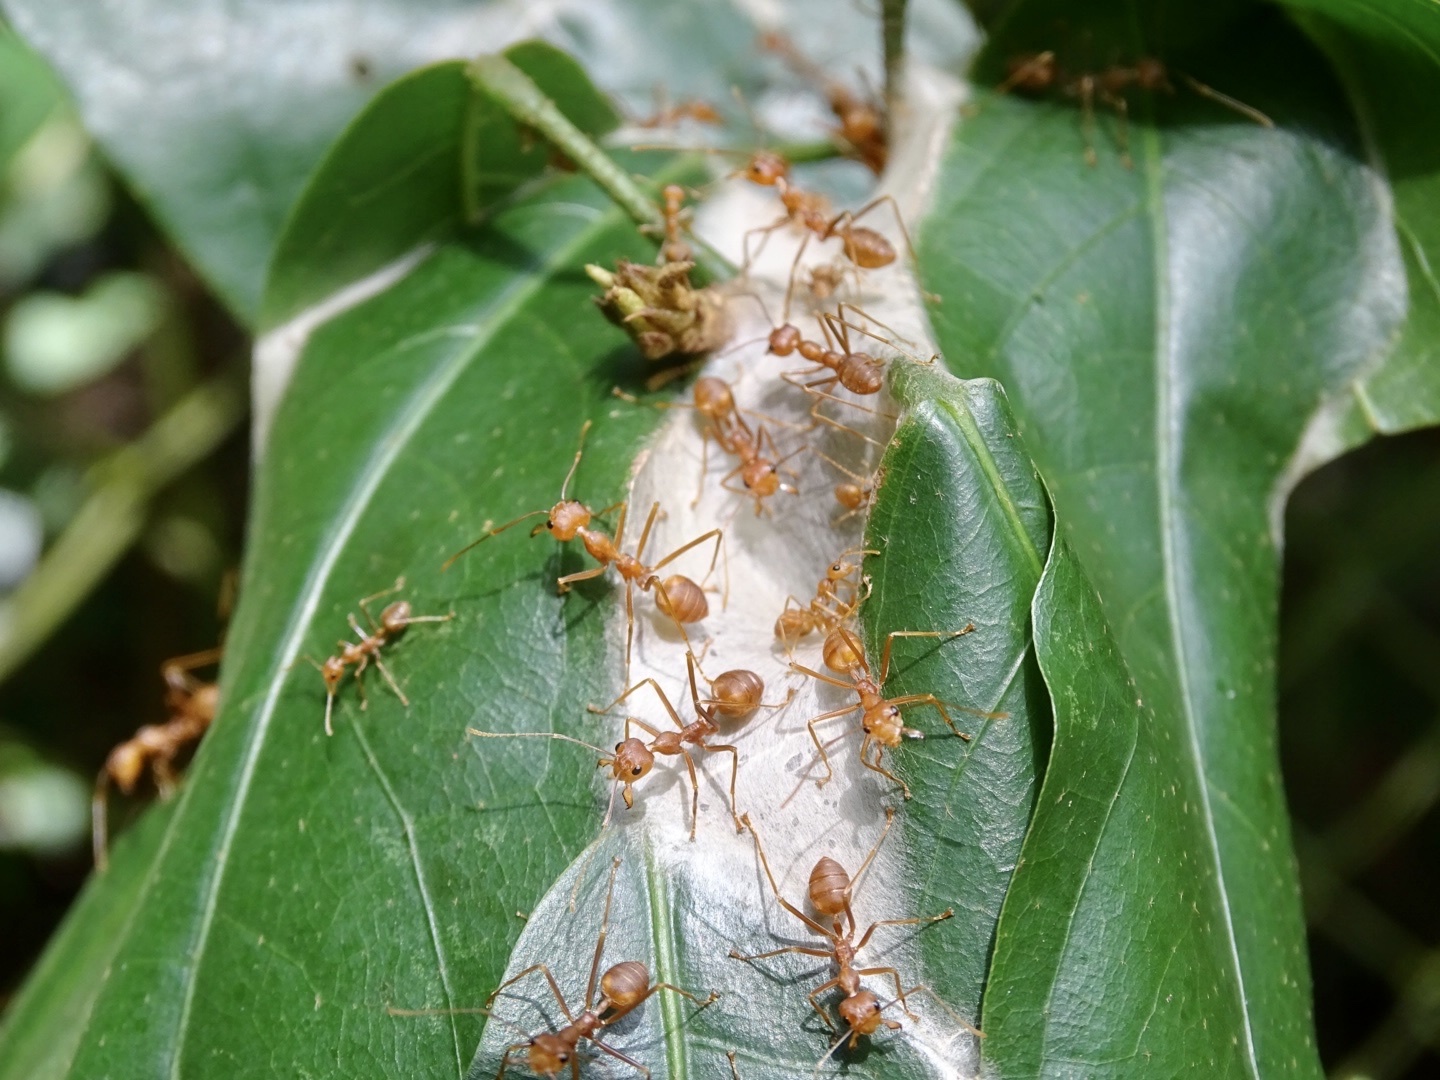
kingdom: Animalia
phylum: Arthropoda
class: Insecta
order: Hymenoptera
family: Formicidae
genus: Oecophylla
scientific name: Oecophylla smaragdina
